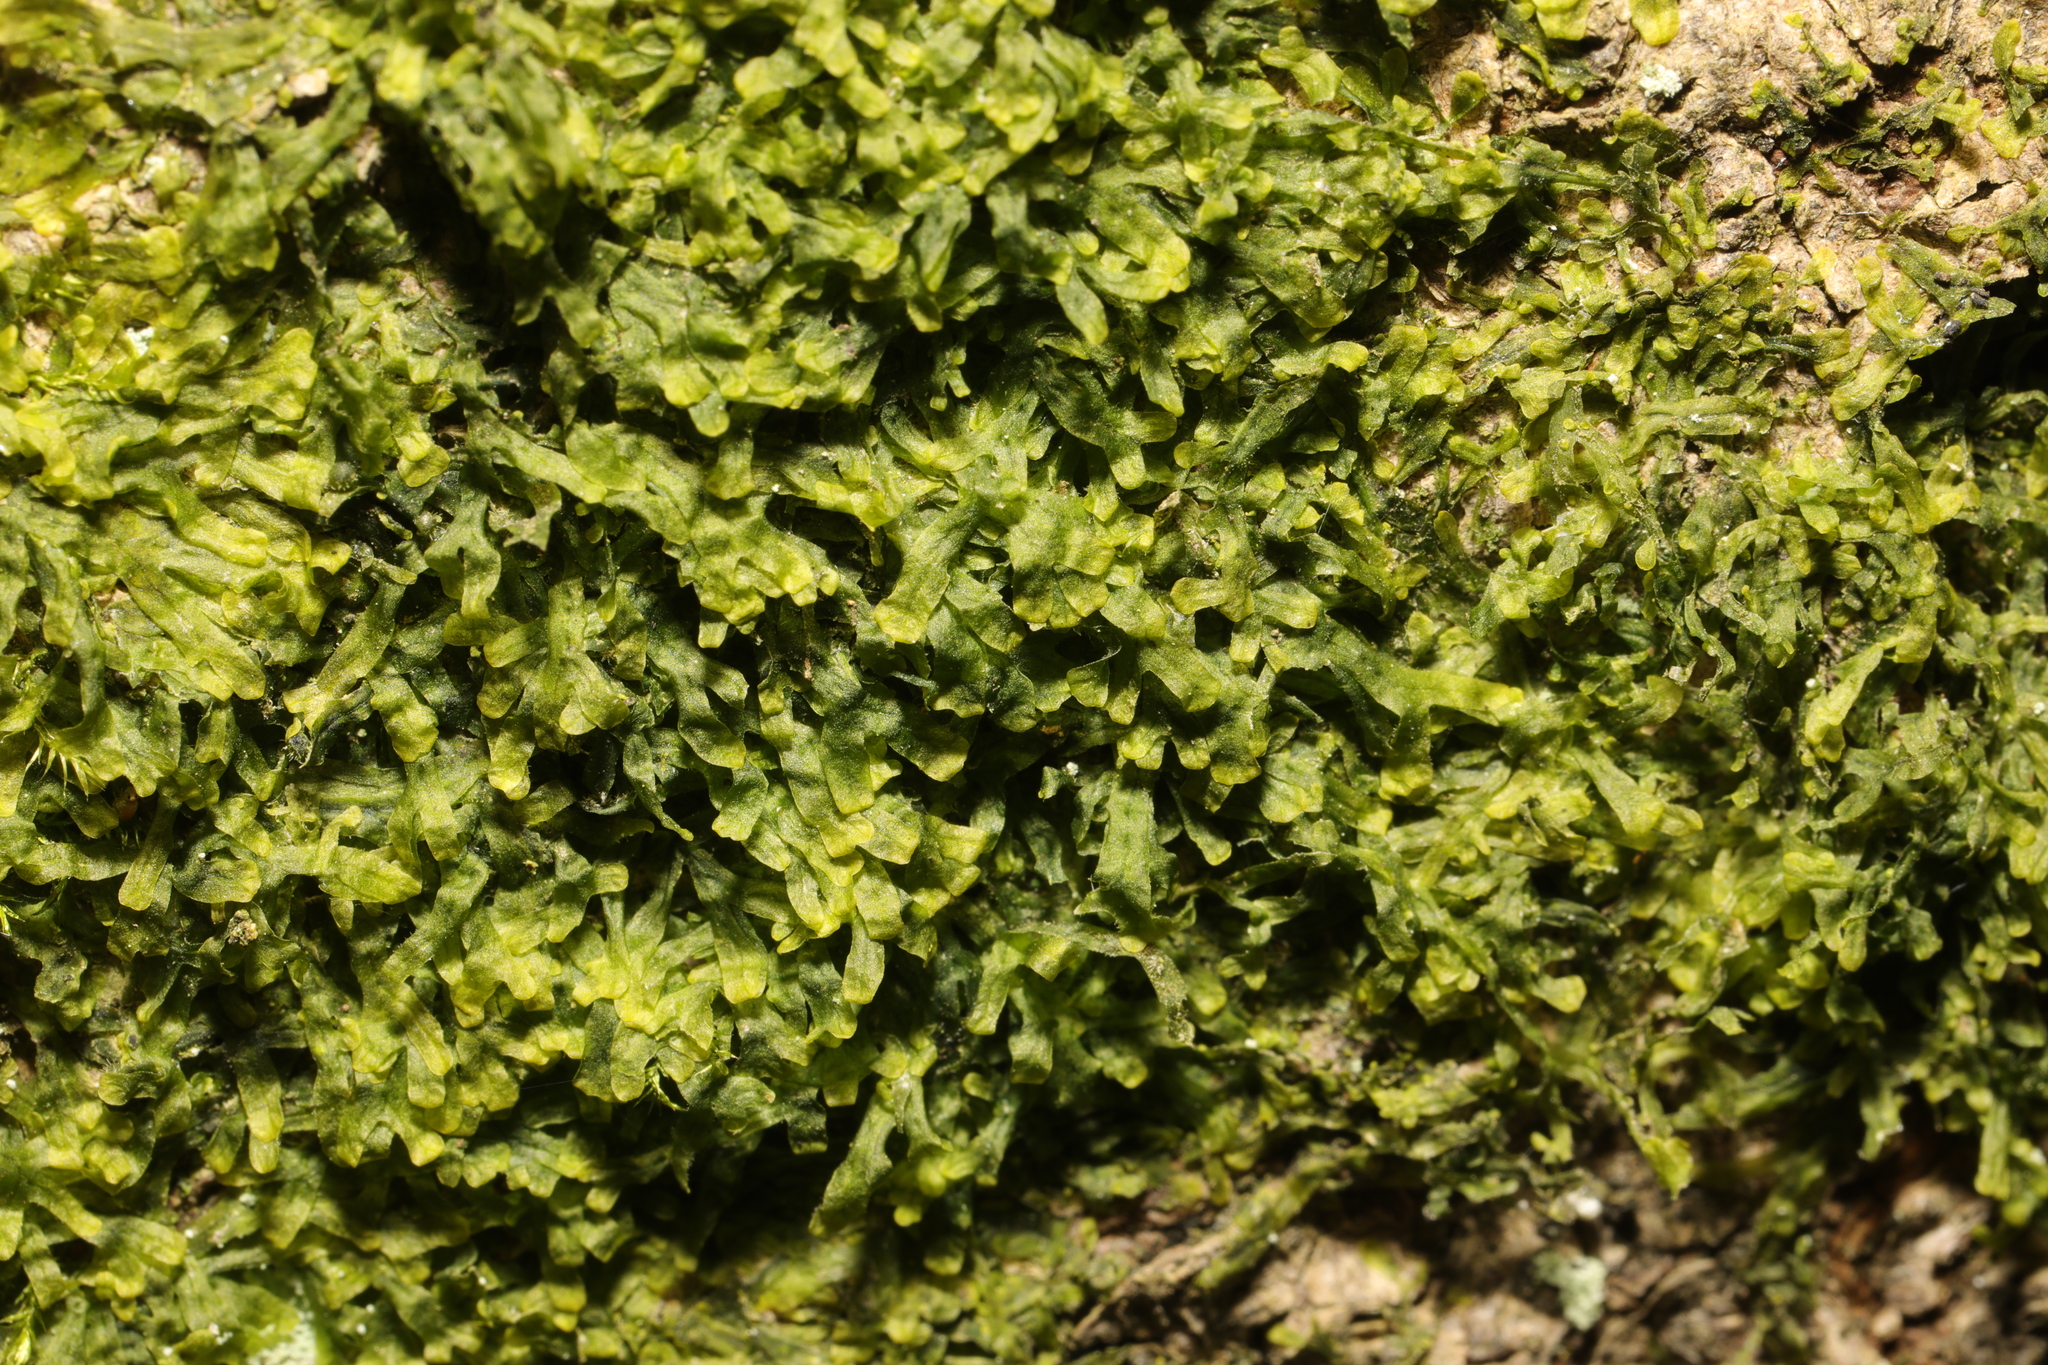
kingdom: Plantae
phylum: Marchantiophyta
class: Jungermanniopsida
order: Metzgeriales
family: Metzgeriaceae
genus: Metzgeria
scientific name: Metzgeria furcata
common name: Forked veilwort
